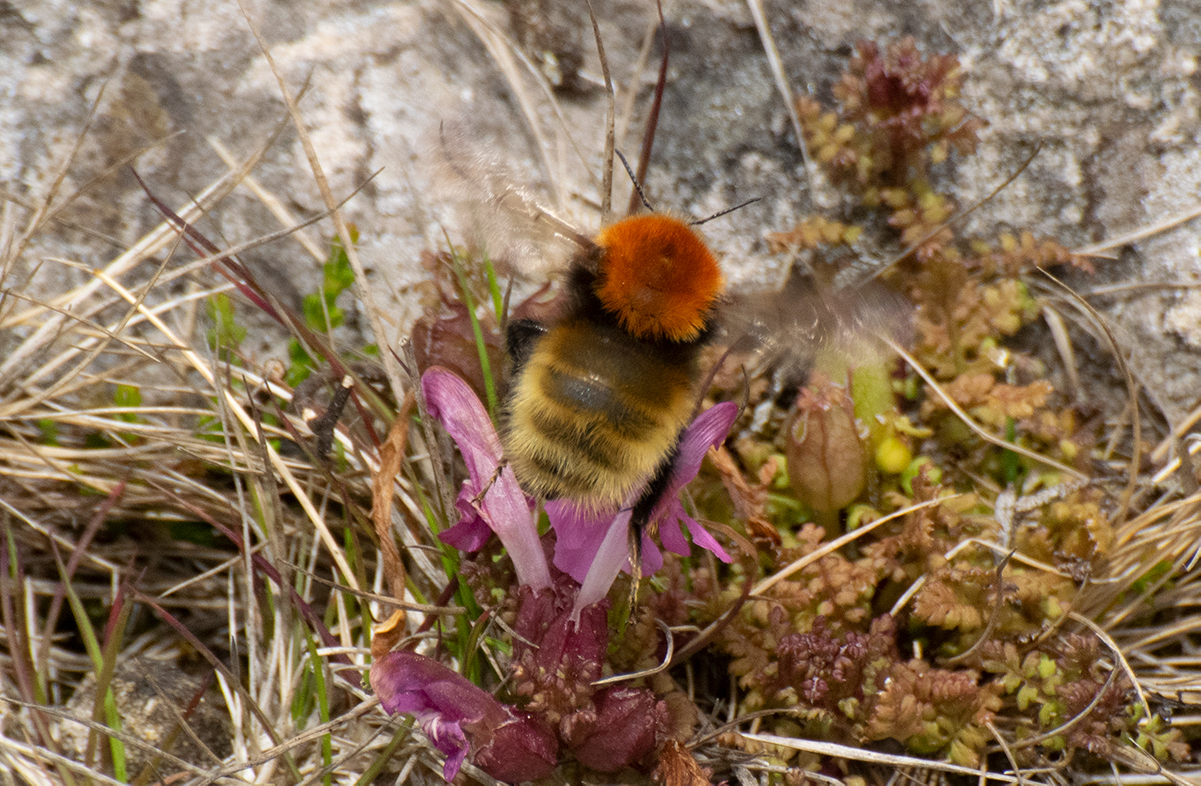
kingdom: Animalia
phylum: Arthropoda
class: Insecta
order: Hymenoptera
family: Apidae
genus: Bombus
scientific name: Bombus muscorum
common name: Moss carder-bee
